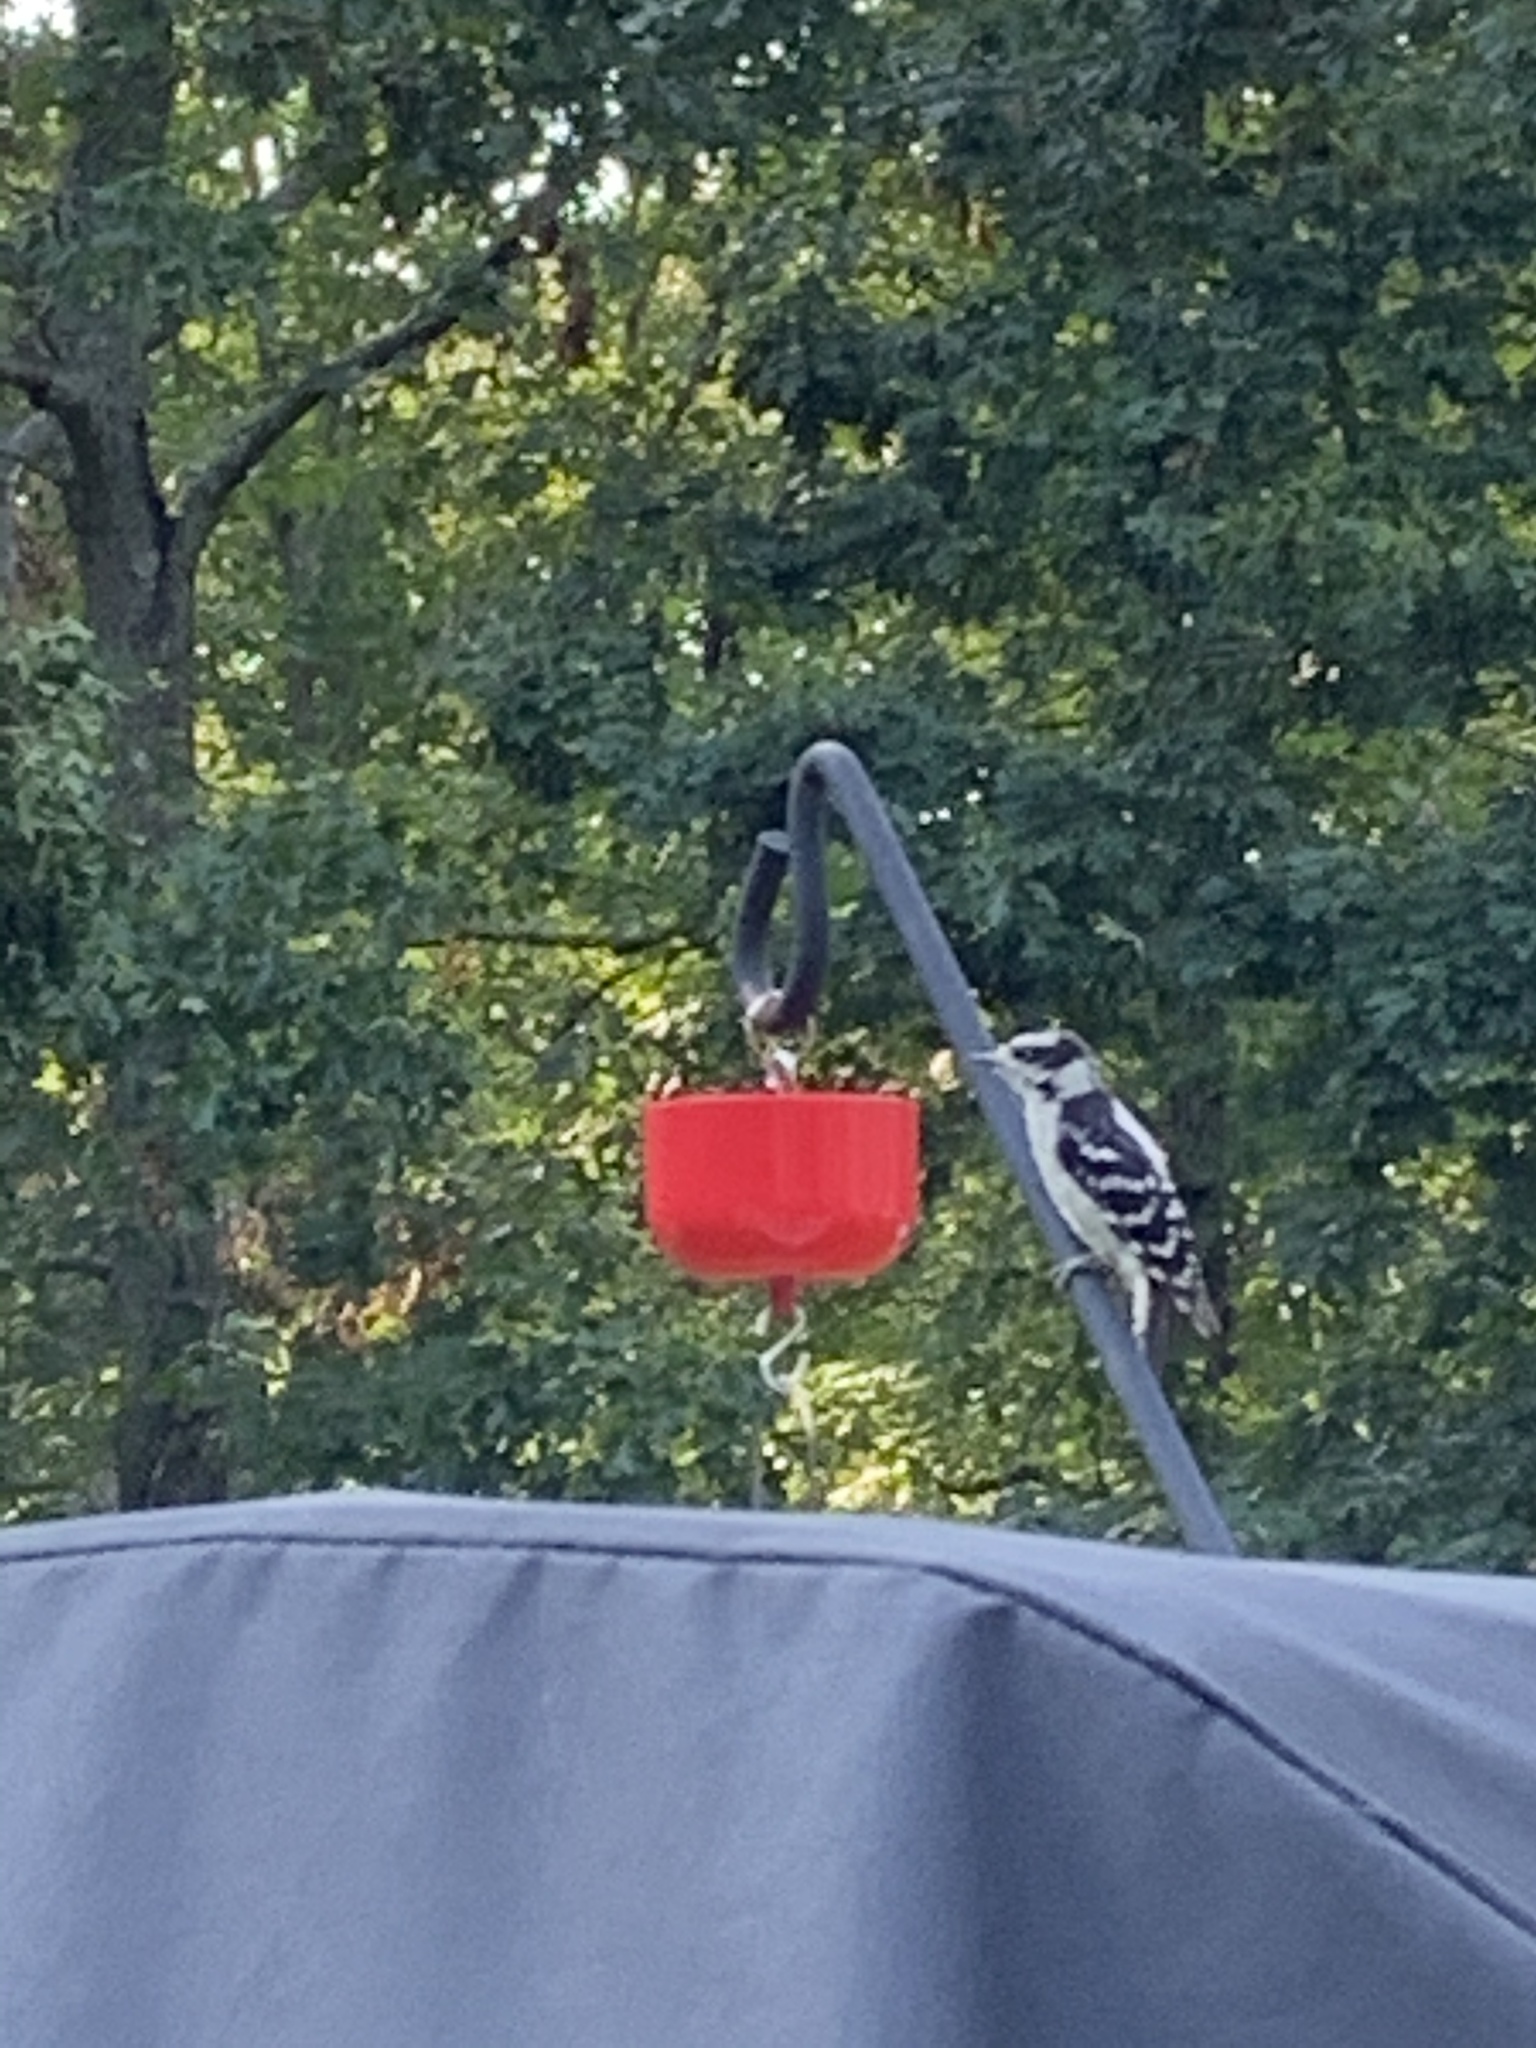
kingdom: Animalia
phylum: Chordata
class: Aves
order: Piciformes
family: Picidae
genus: Dryobates
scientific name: Dryobates pubescens
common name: Downy woodpecker
